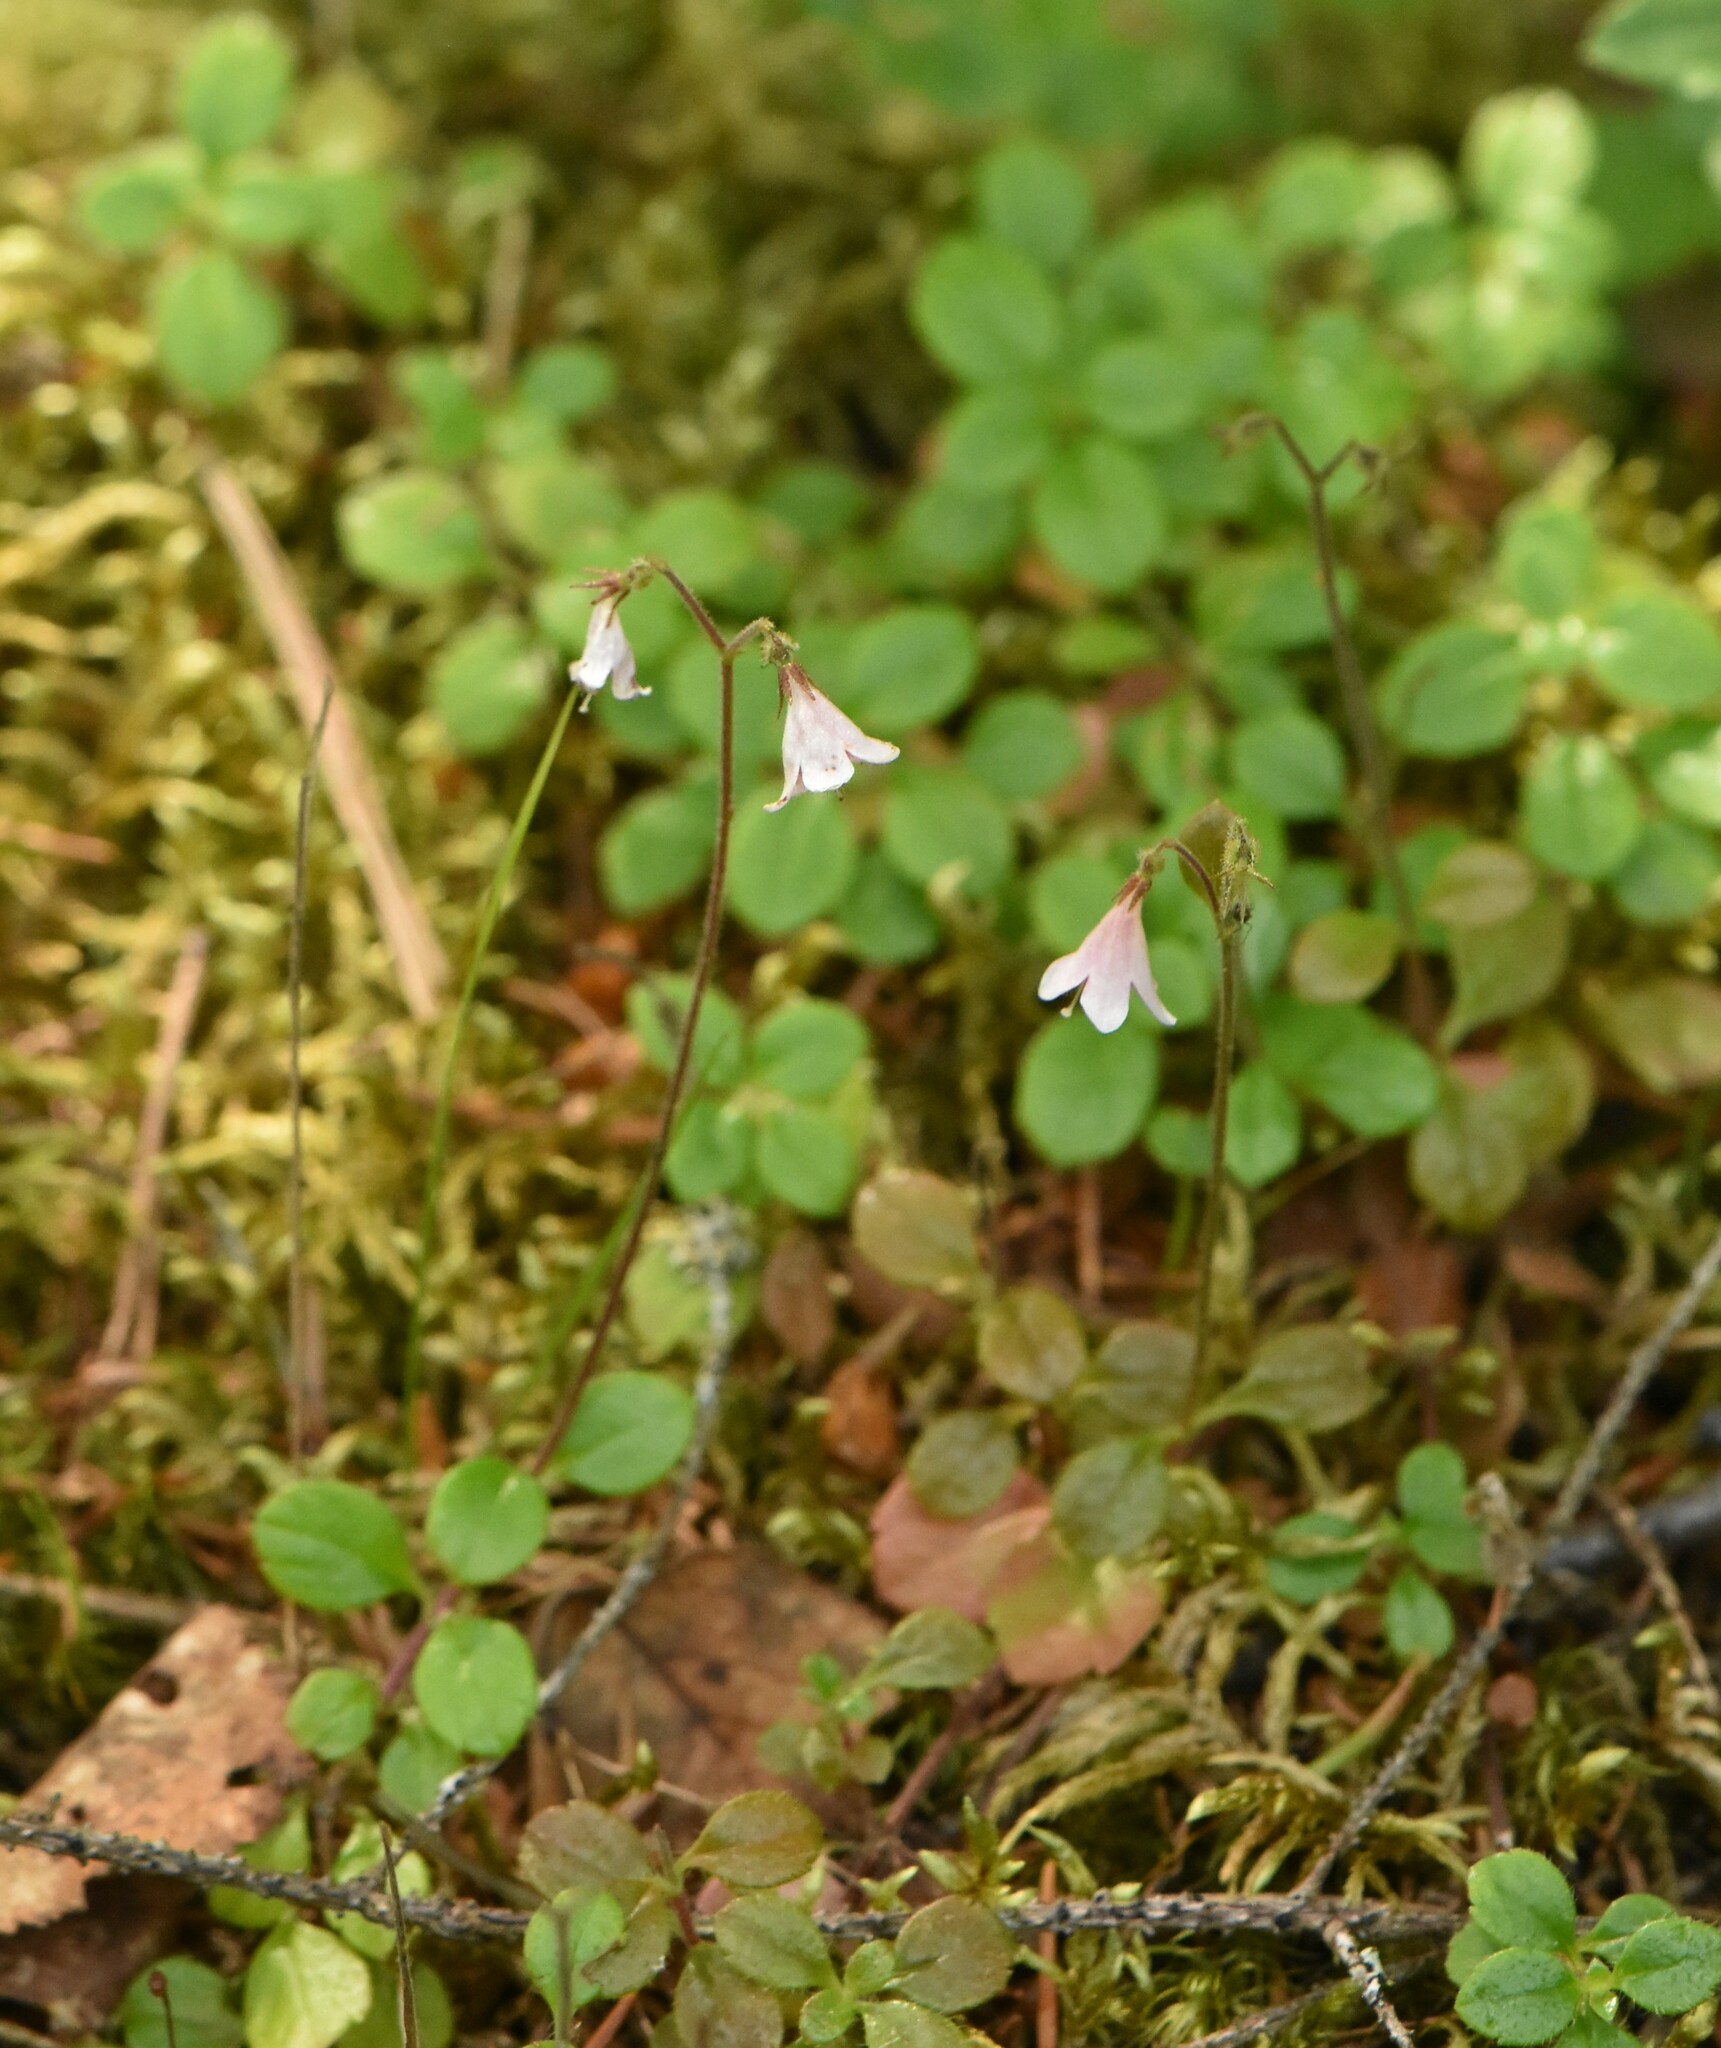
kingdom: Plantae
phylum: Tracheophyta
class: Magnoliopsida
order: Dipsacales
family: Caprifoliaceae
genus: Linnaea
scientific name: Linnaea borealis
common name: Twinflower
